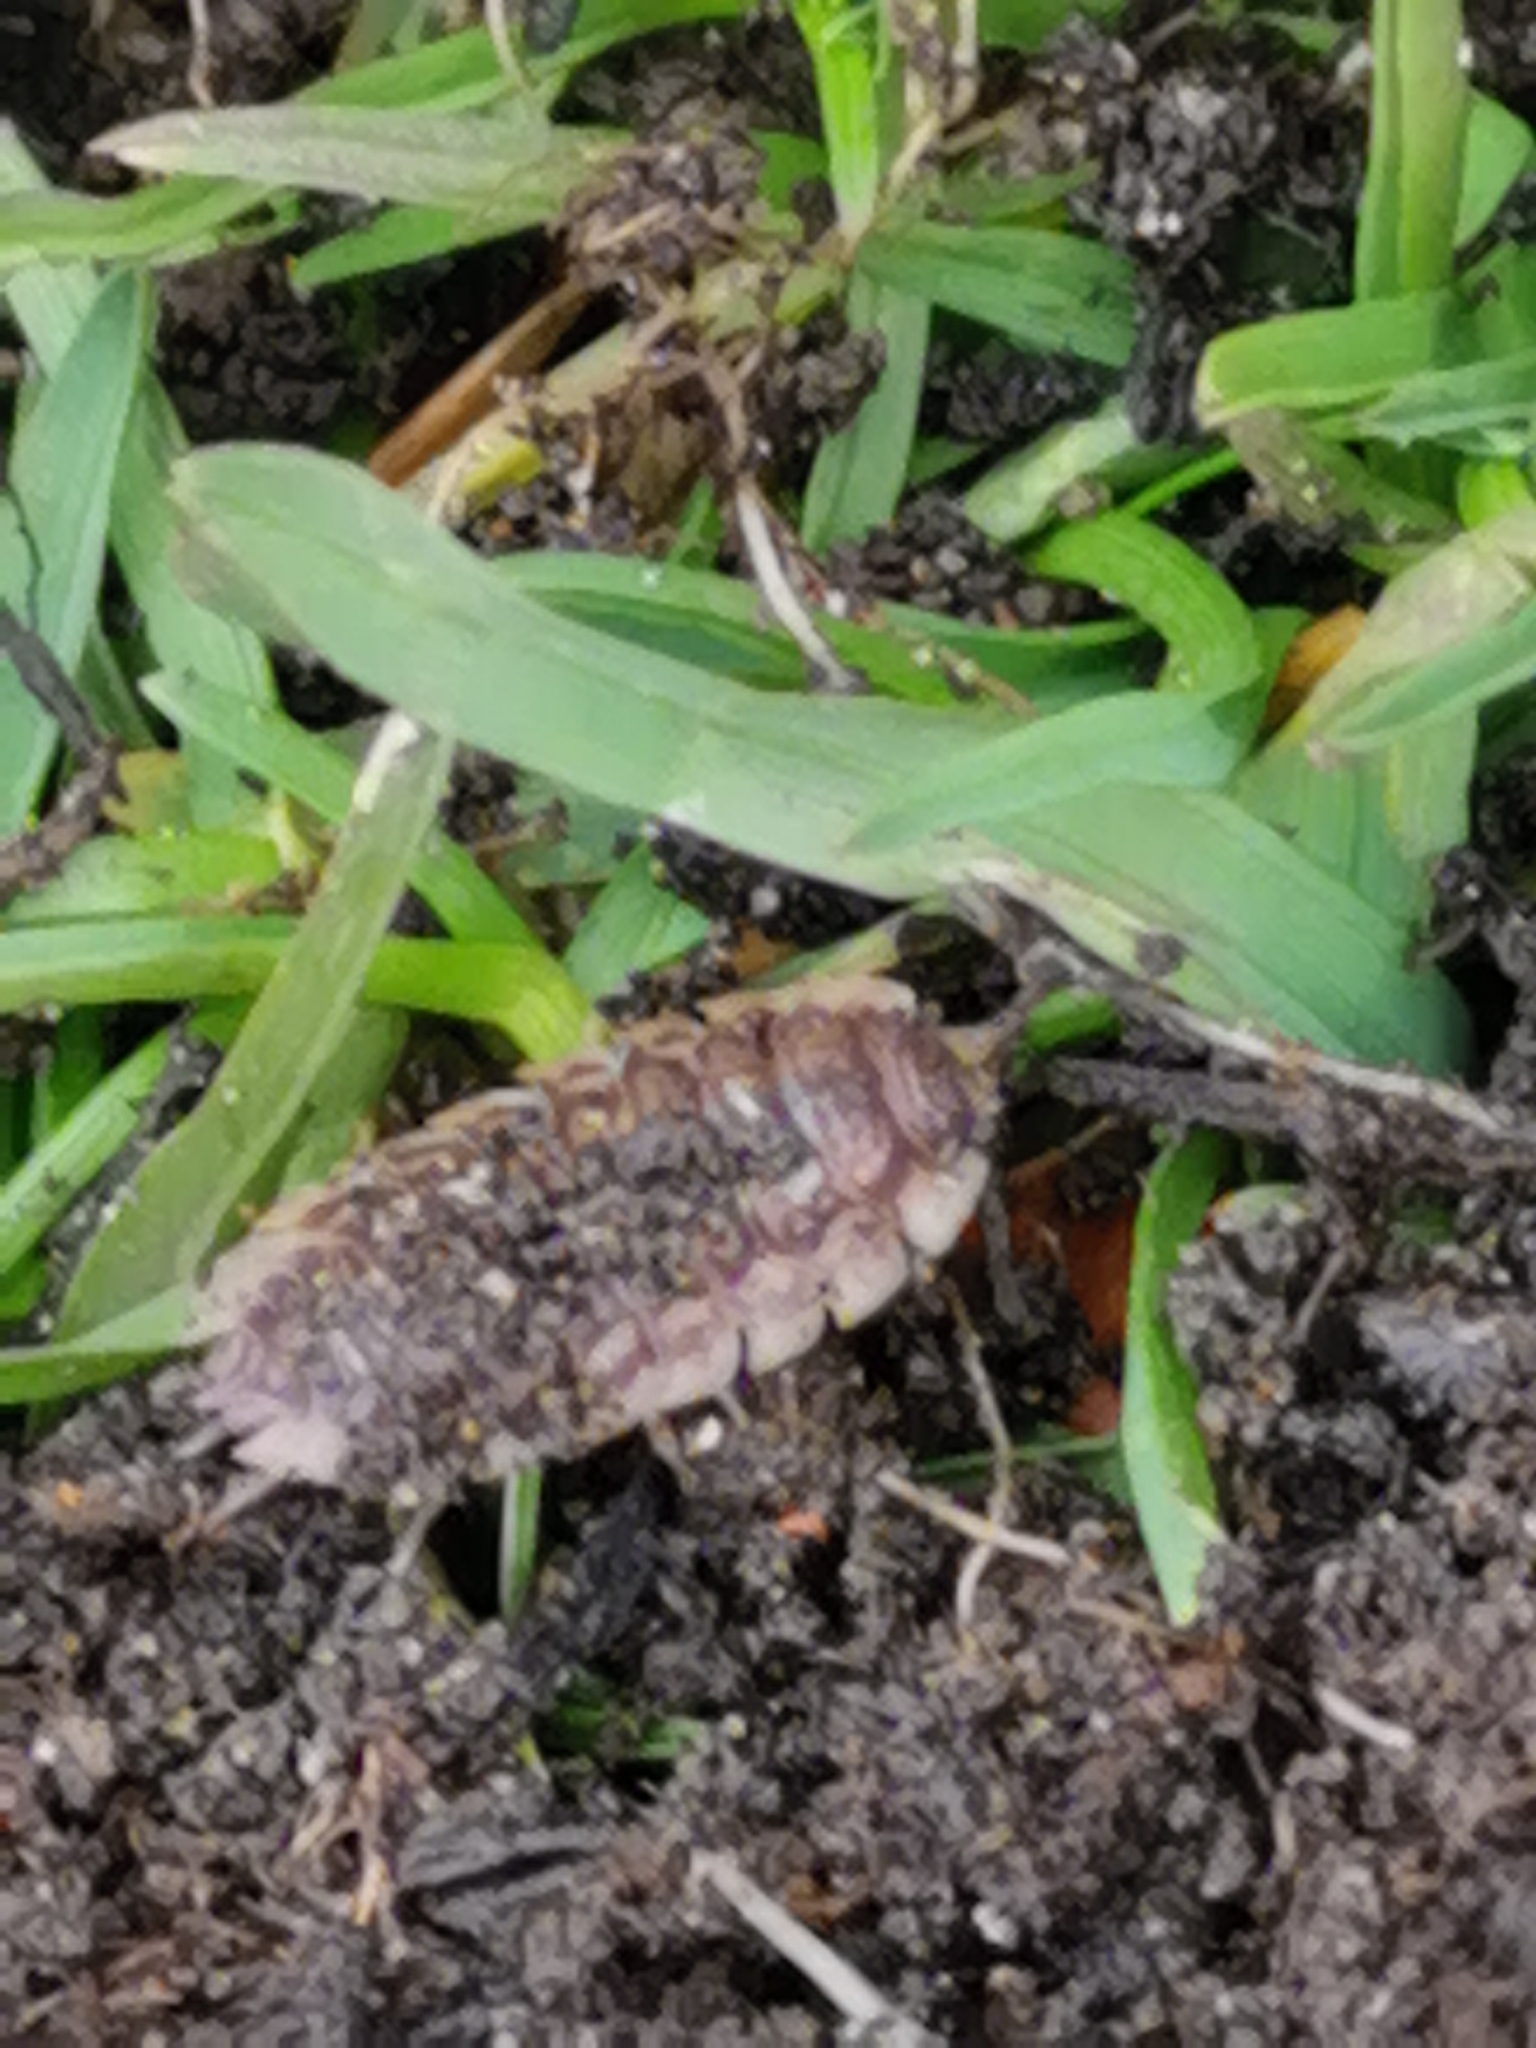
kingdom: Animalia
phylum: Arthropoda
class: Malacostraca
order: Isopoda
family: Oniscidae
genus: Oniscus
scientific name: Oniscus asellus
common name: Common shiny woodlouse
